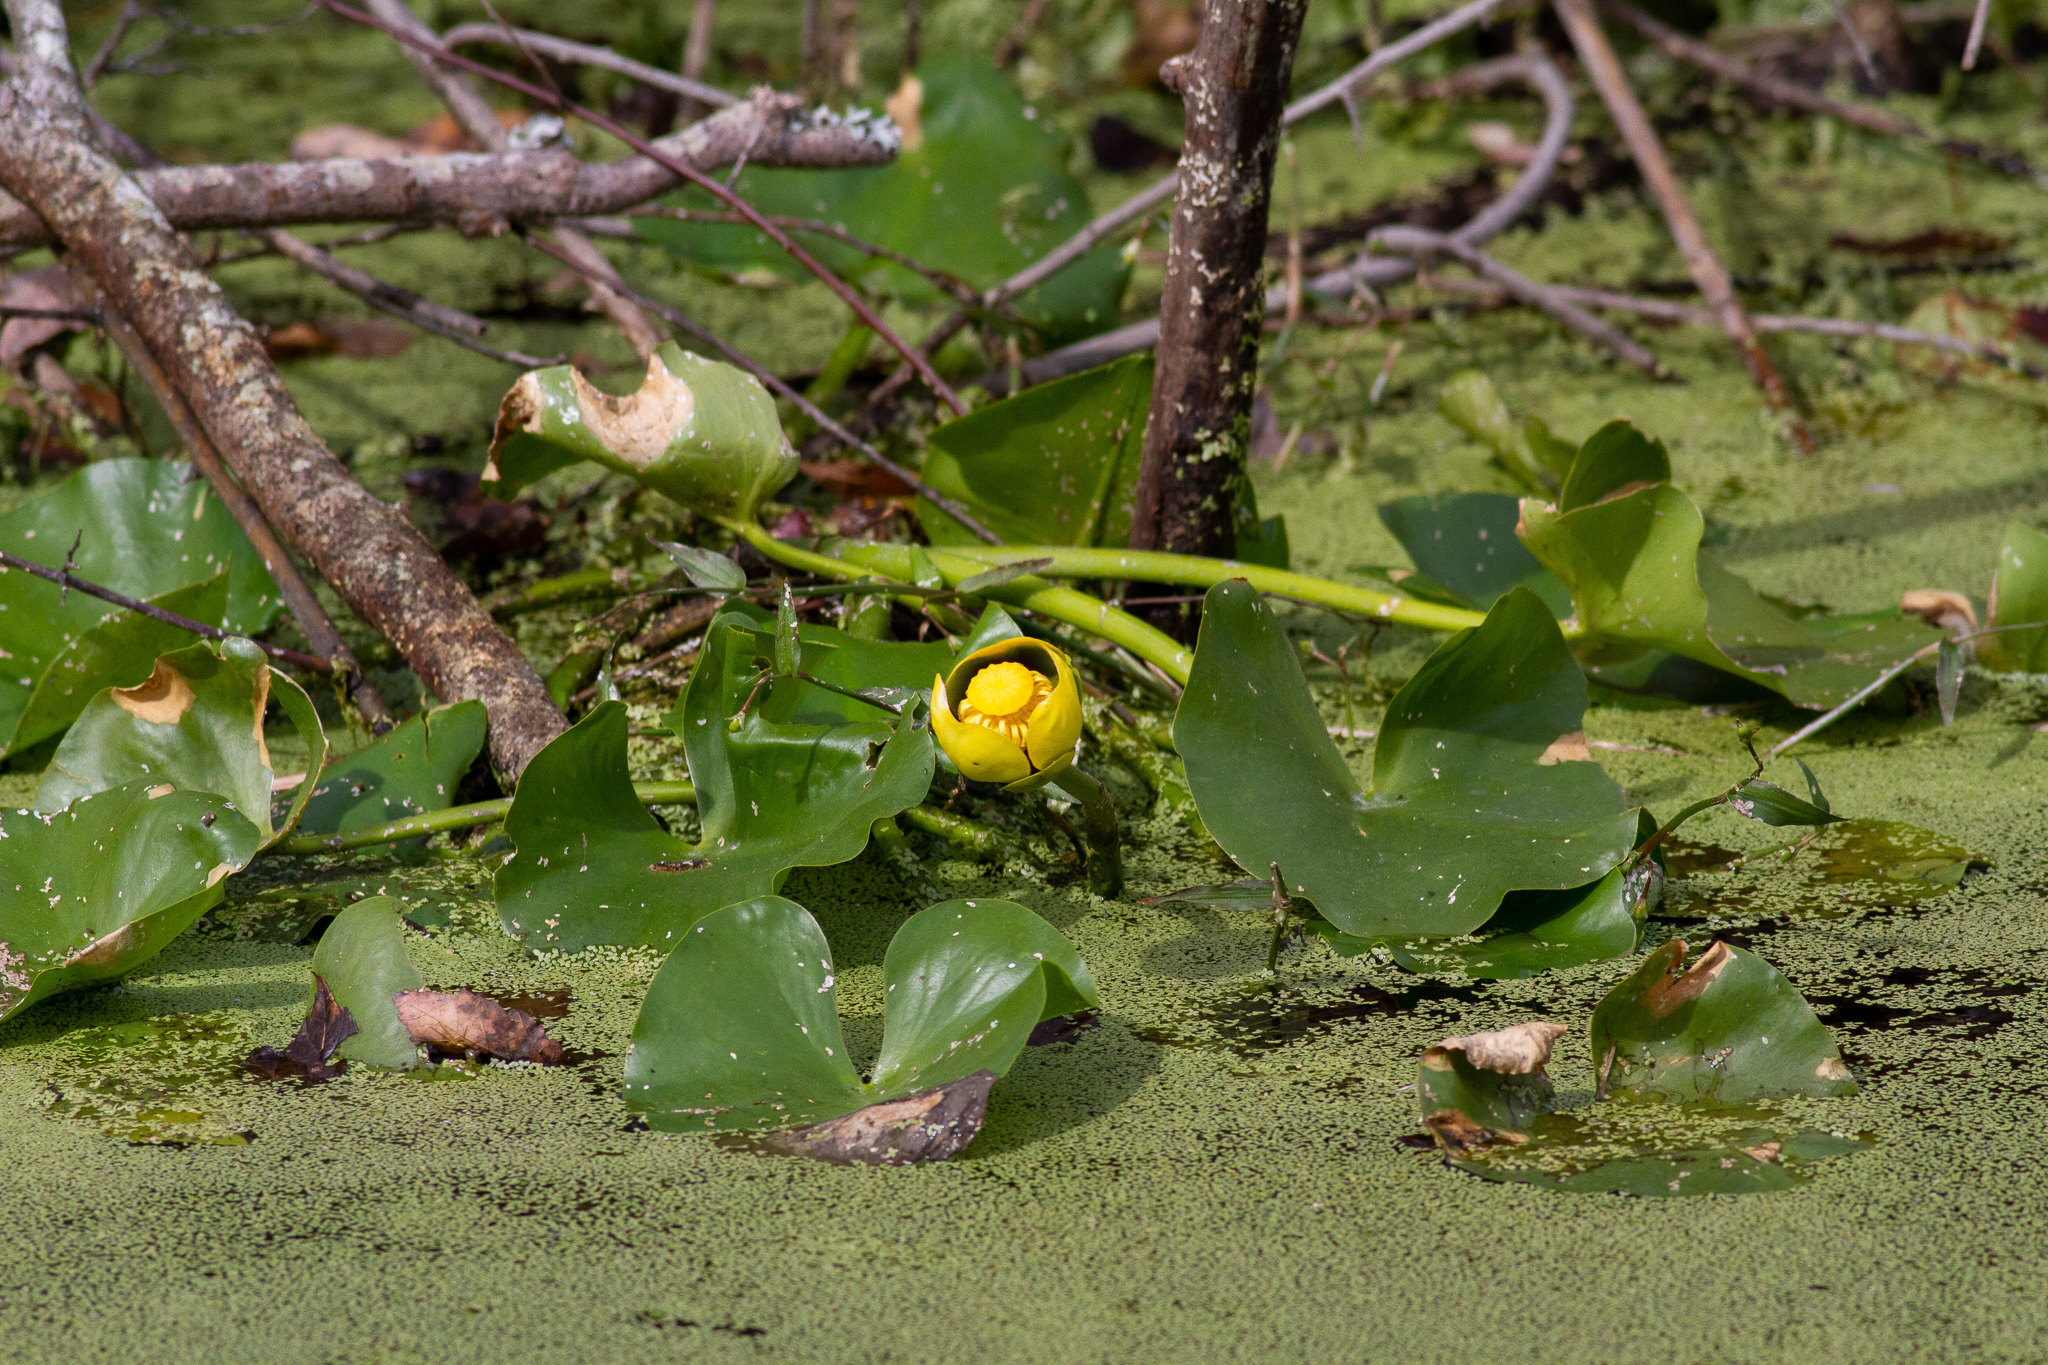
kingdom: Plantae
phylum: Tracheophyta
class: Magnoliopsida
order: Nymphaeales
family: Nymphaeaceae
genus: Nuphar
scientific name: Nuphar advena
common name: Spatter-dock
